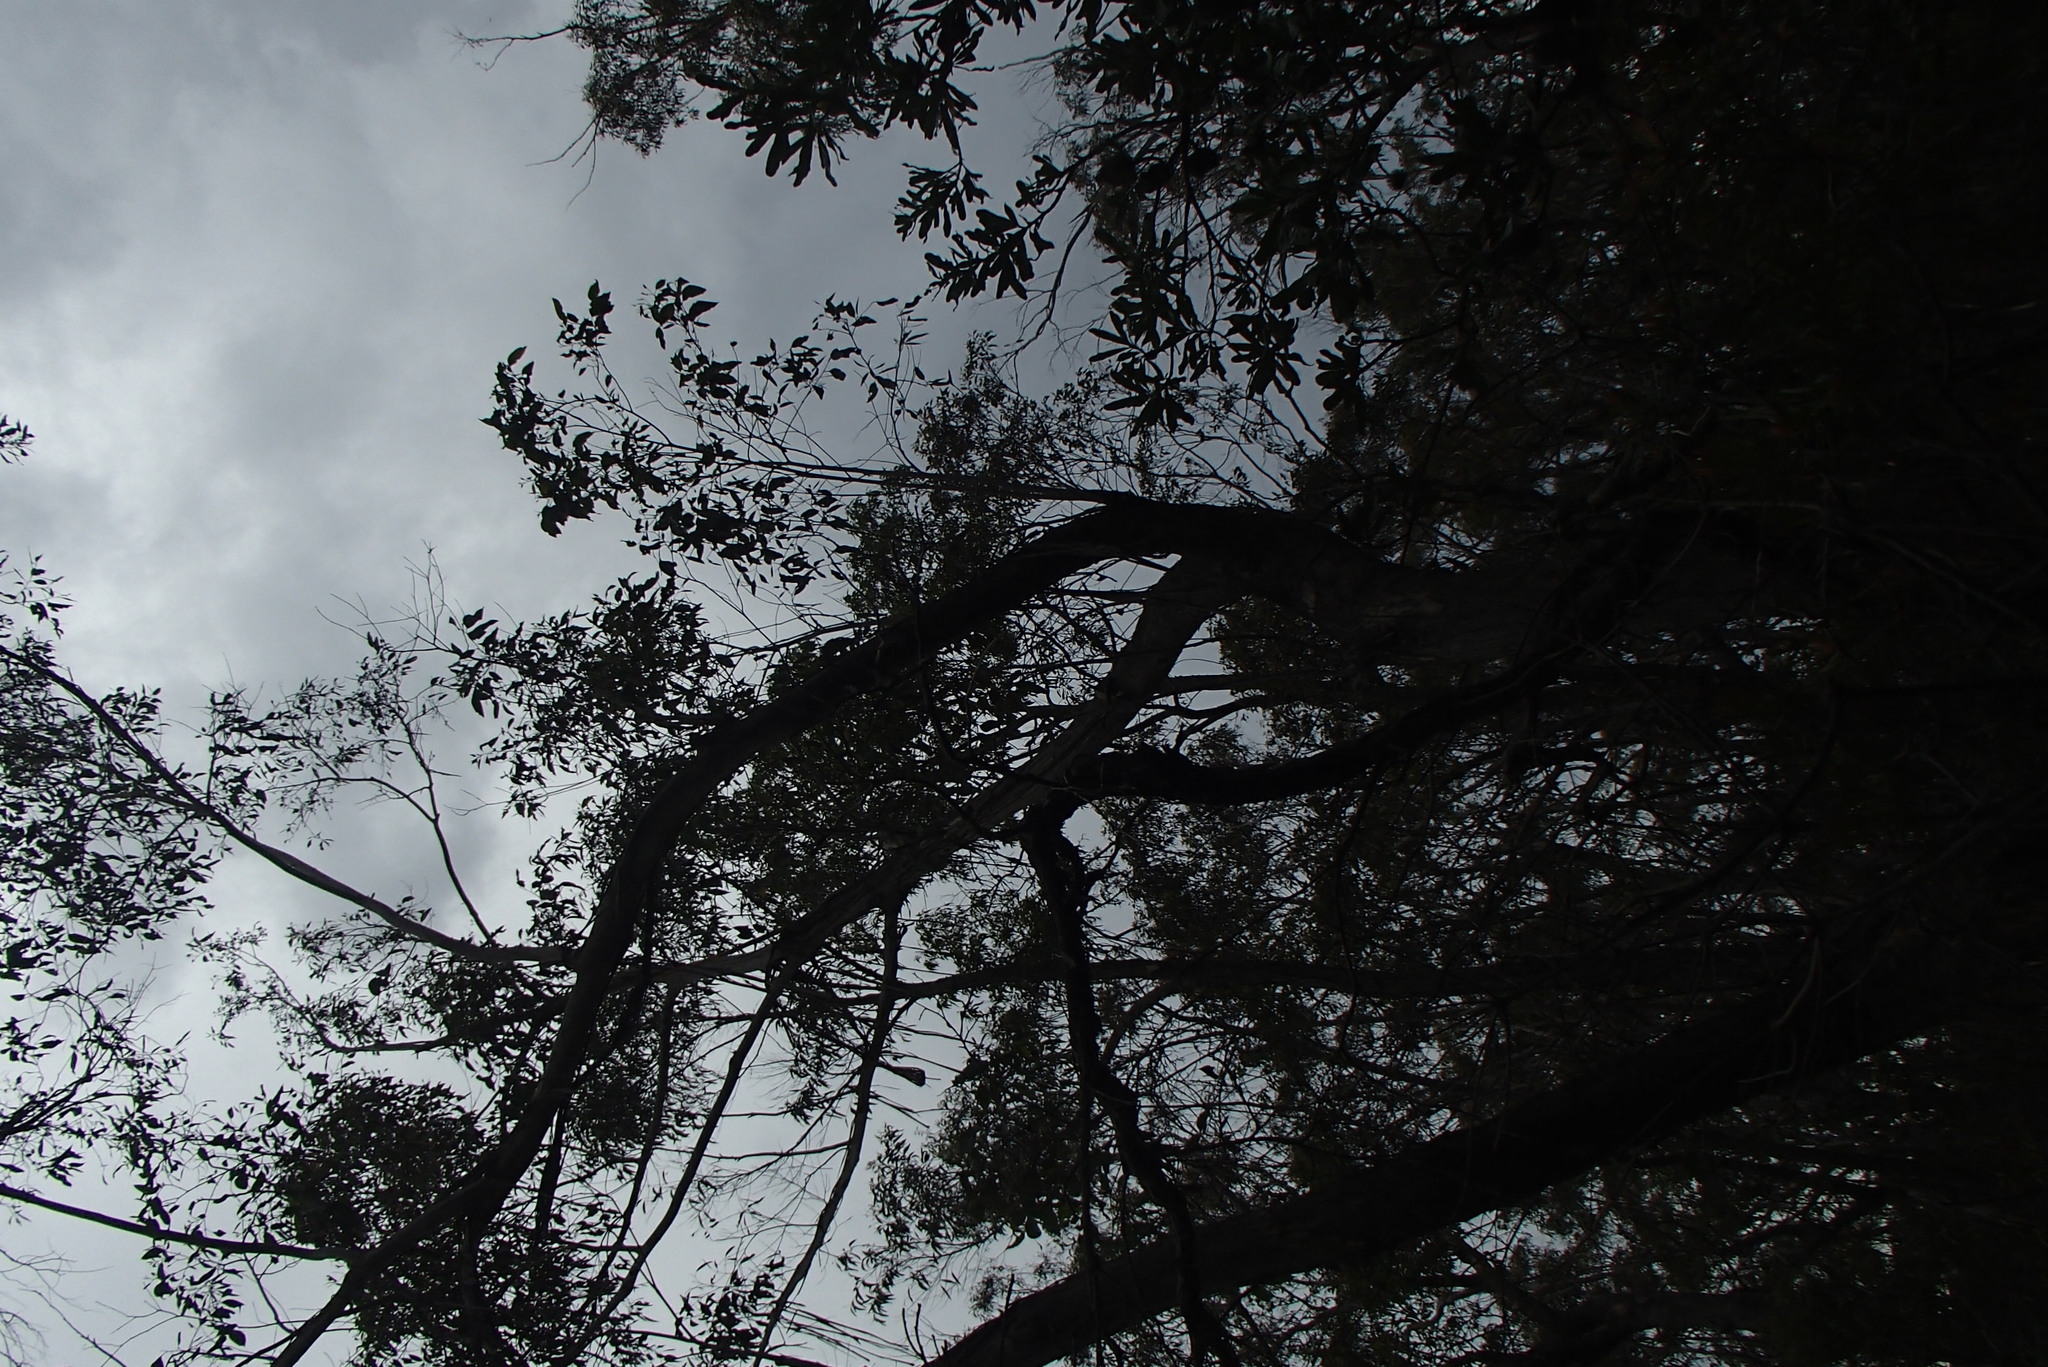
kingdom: Animalia
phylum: Chordata
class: Aves
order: Psittaciformes
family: Psittacidae
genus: Callocephalon
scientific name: Callocephalon fimbriatum
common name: Gang-gang cockatoo
